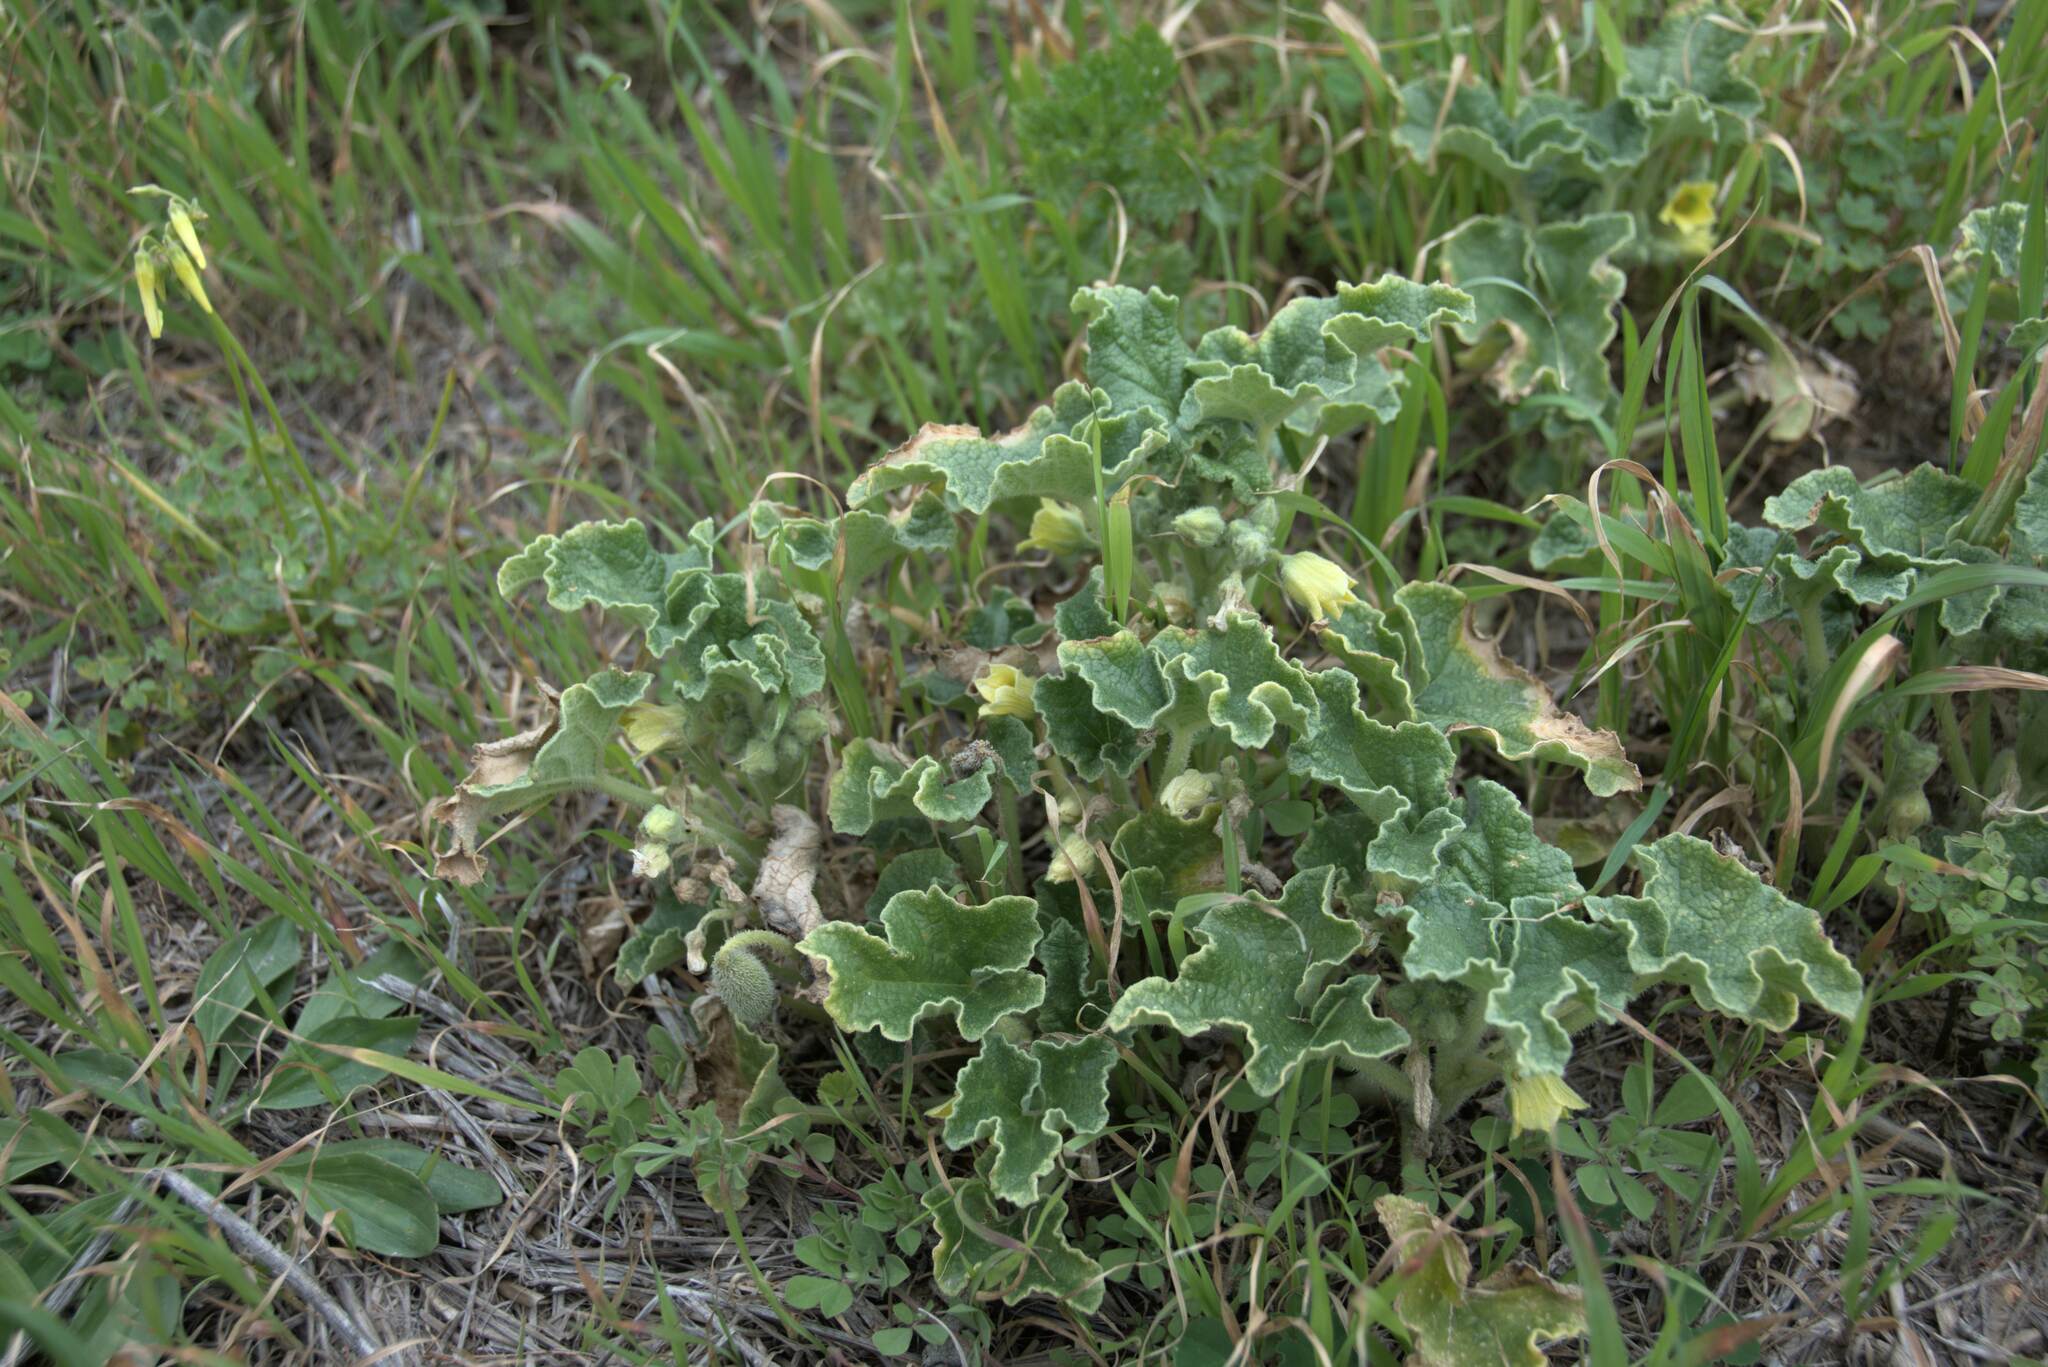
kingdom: Plantae
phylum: Tracheophyta
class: Magnoliopsida
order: Cucurbitales
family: Cucurbitaceae
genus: Ecballium
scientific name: Ecballium elaterium
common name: Squirting cucumber
